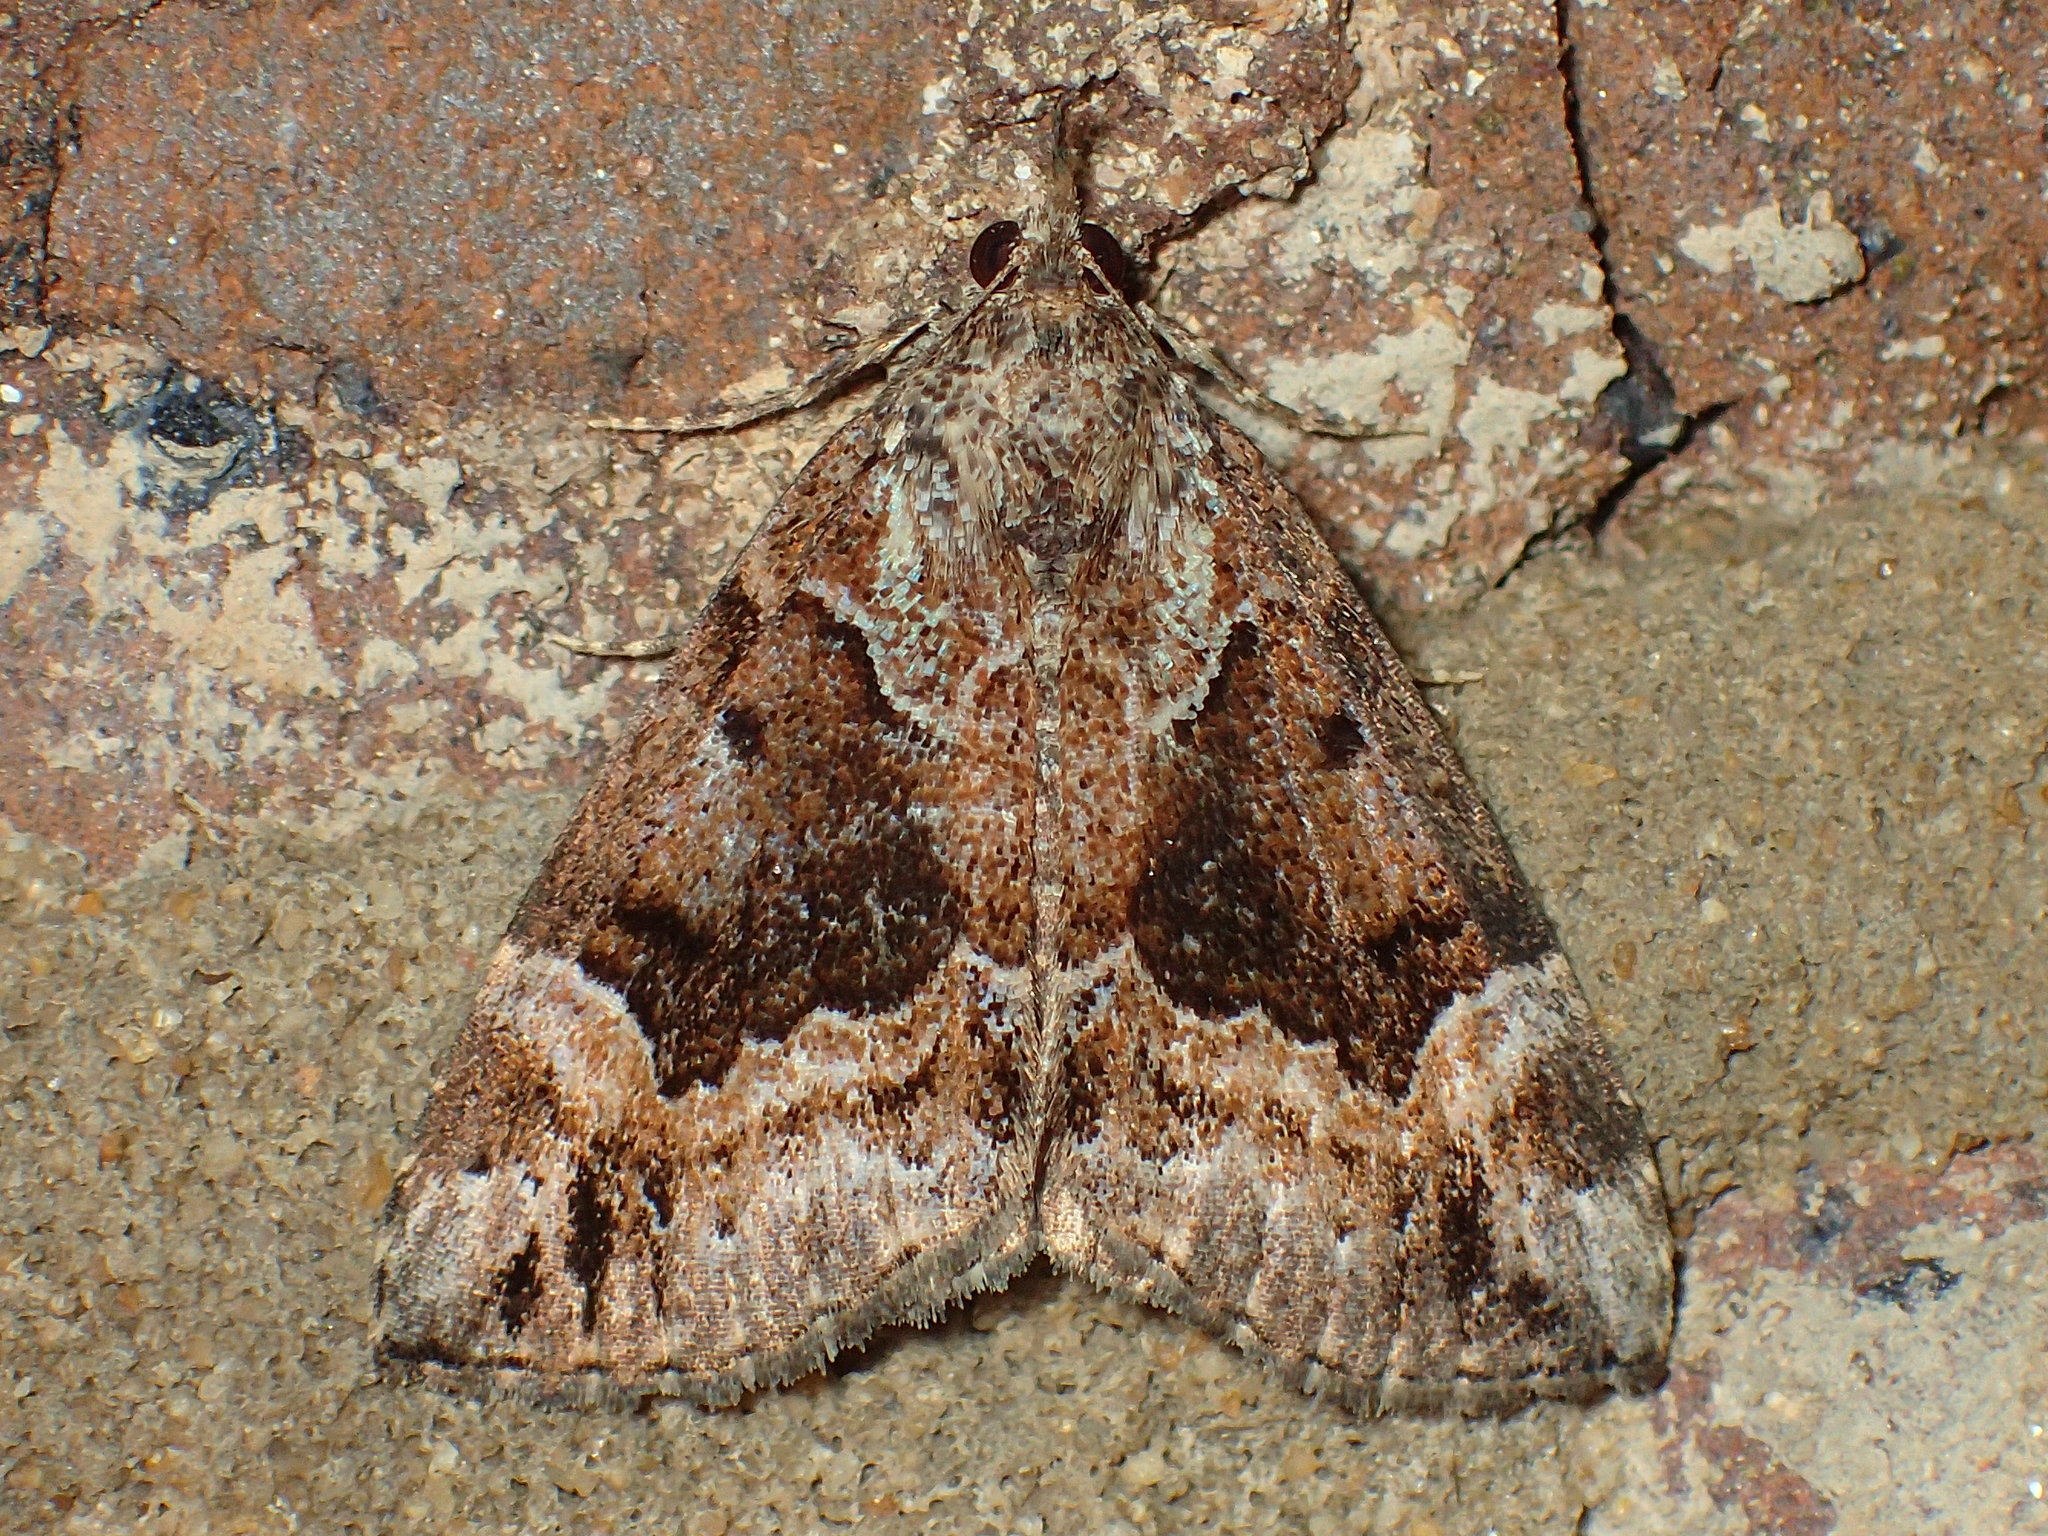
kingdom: Animalia
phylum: Arthropoda
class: Insecta
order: Lepidoptera
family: Erebidae
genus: Hypena
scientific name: Hypena palparia
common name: Mottled bomolocha moth
